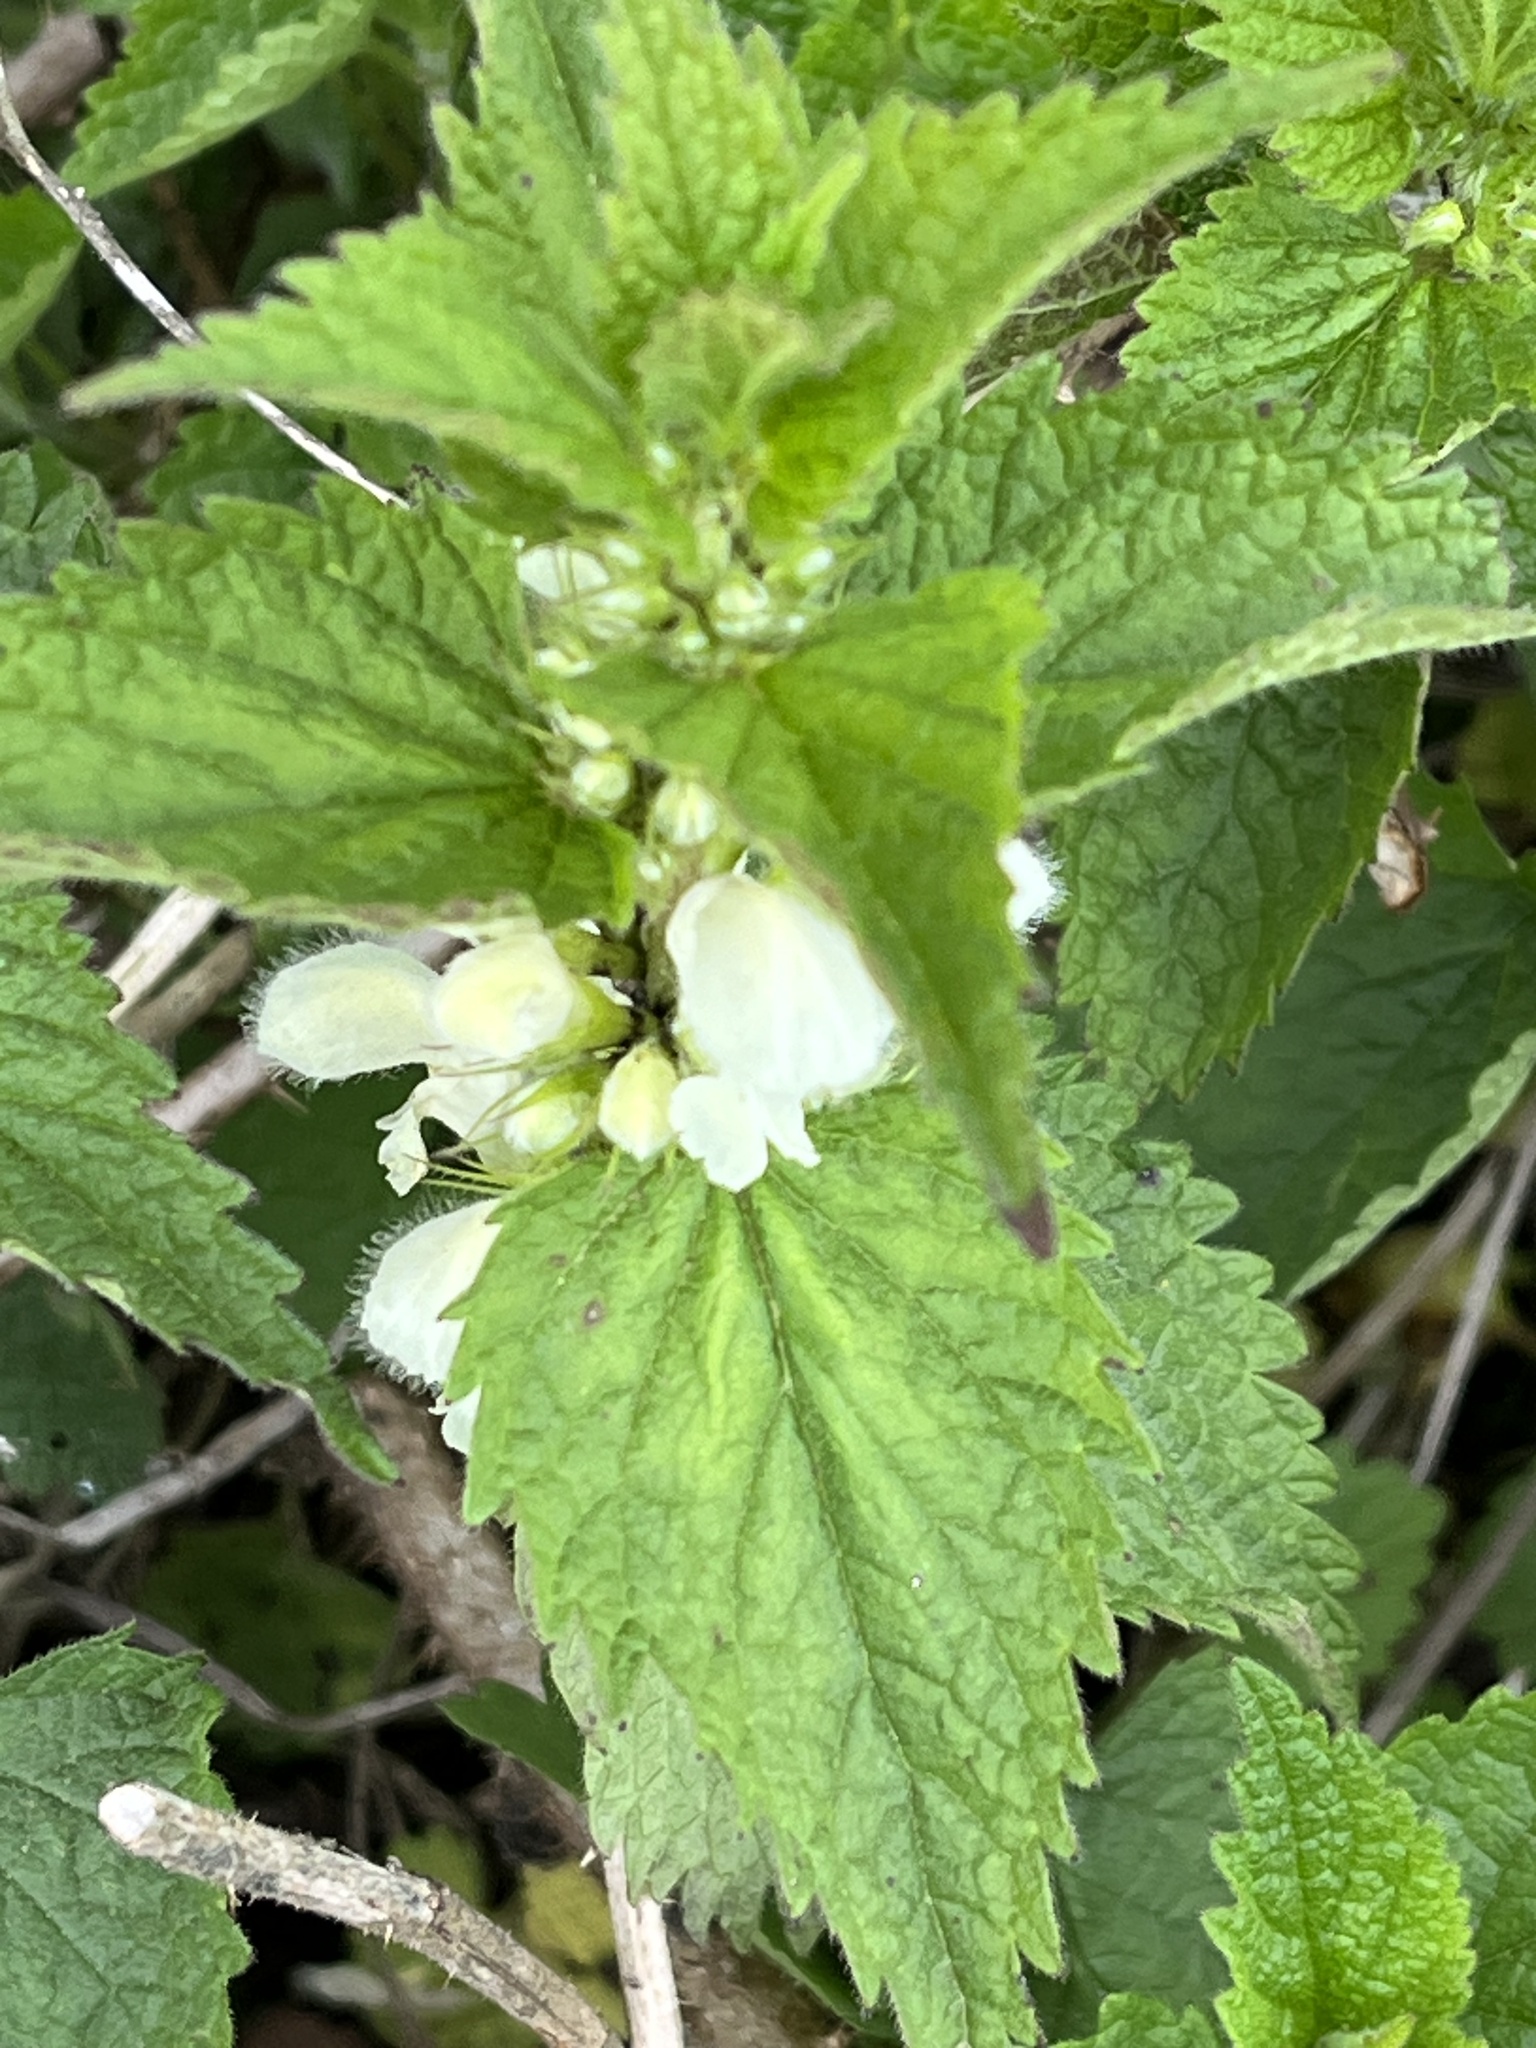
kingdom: Plantae
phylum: Tracheophyta
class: Magnoliopsida
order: Lamiales
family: Lamiaceae
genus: Lamium
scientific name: Lamium
